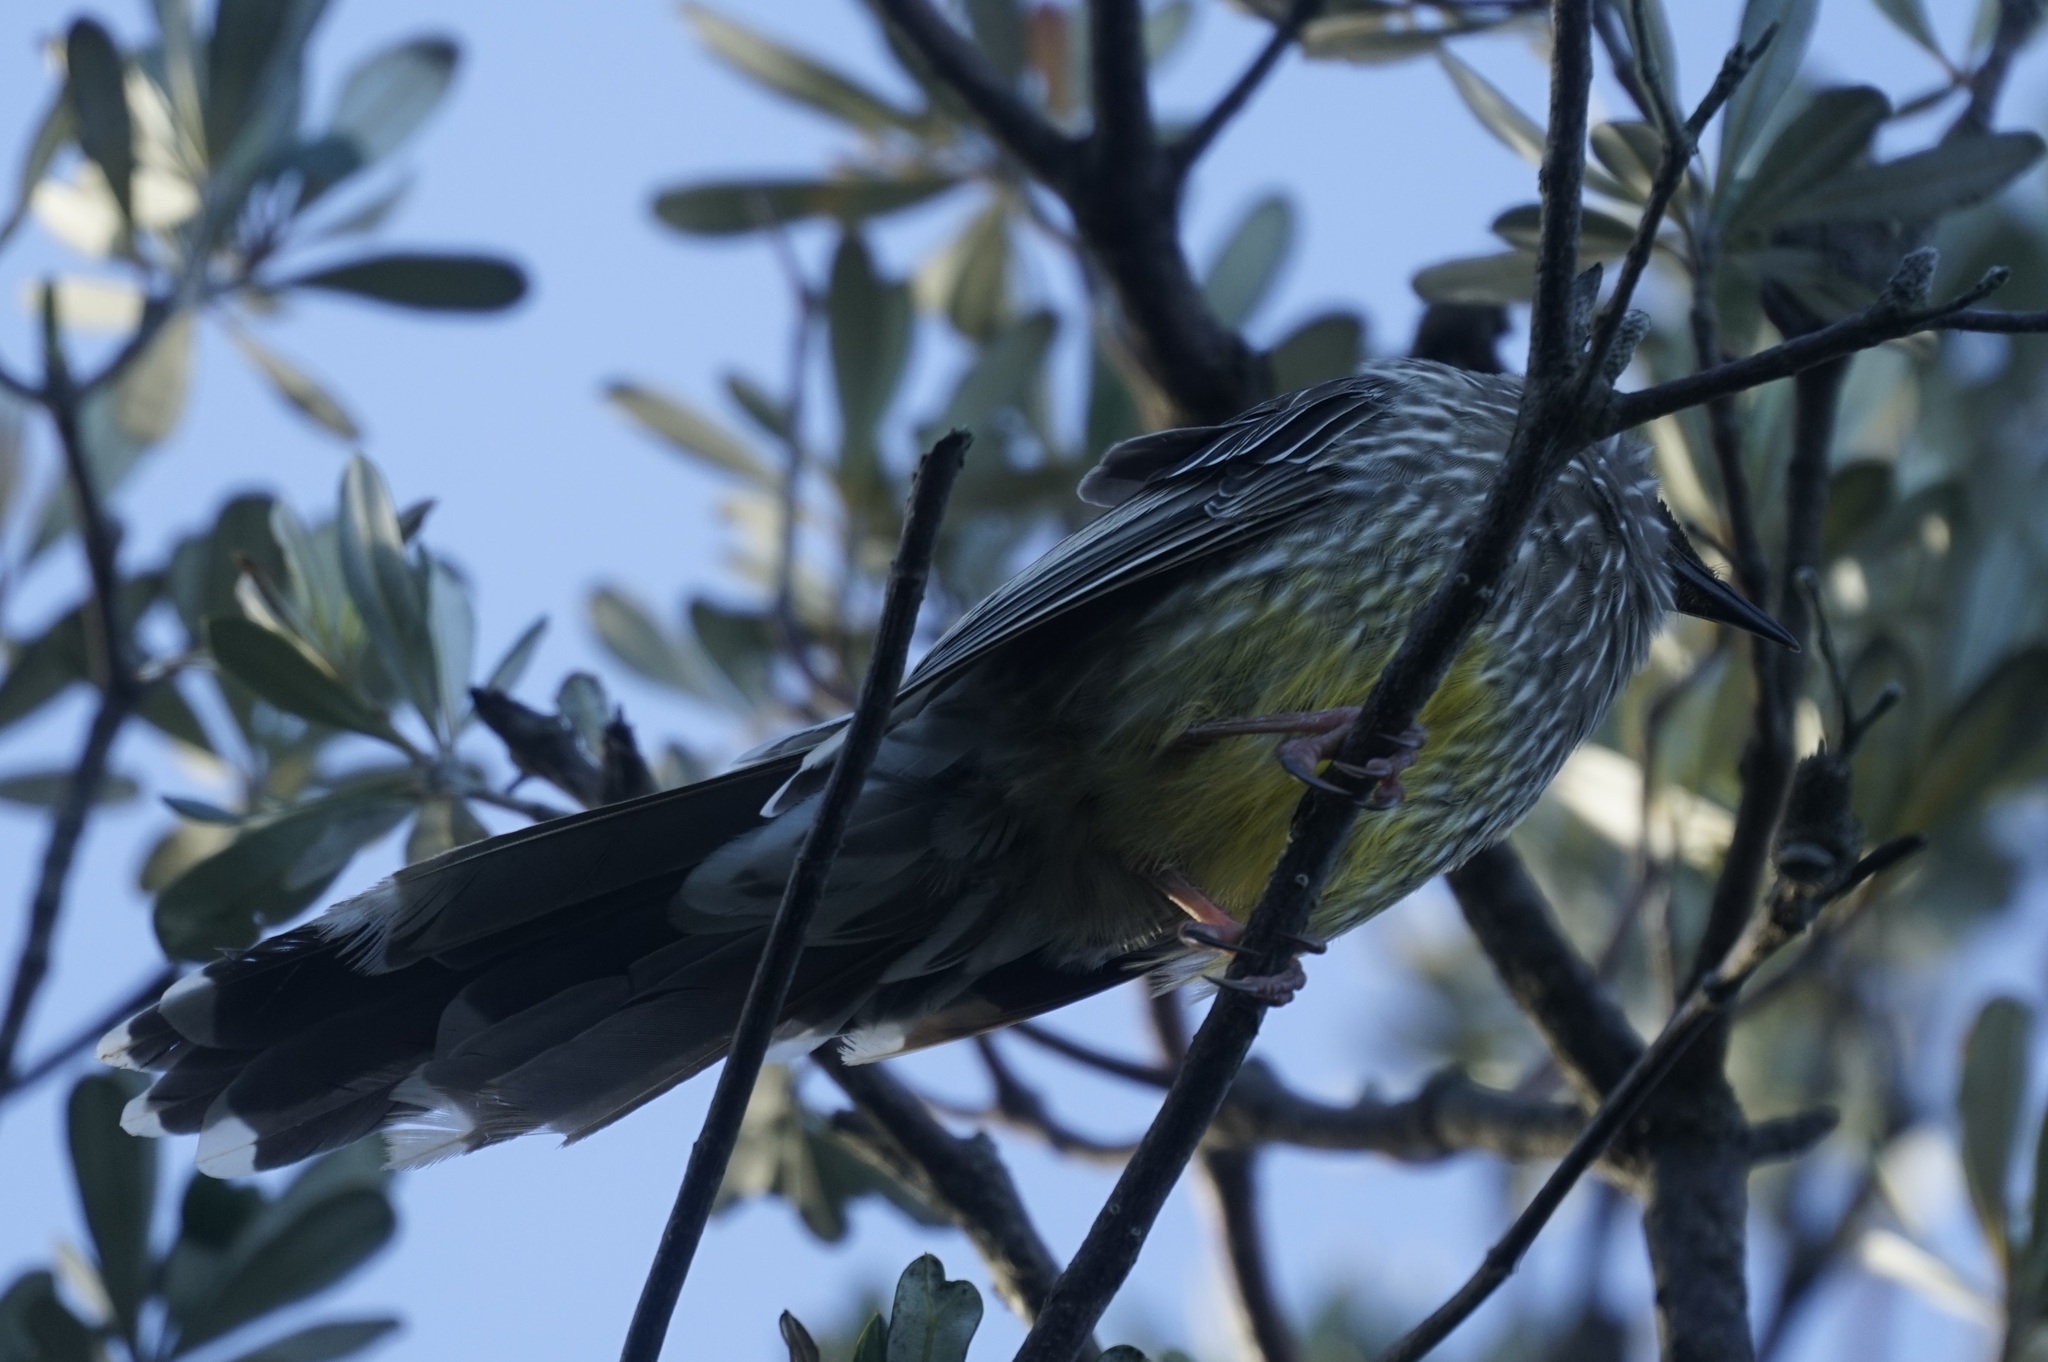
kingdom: Animalia
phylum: Chordata
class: Aves
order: Passeriformes
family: Meliphagidae
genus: Anthochaera
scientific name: Anthochaera carunculata
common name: Red wattlebird
